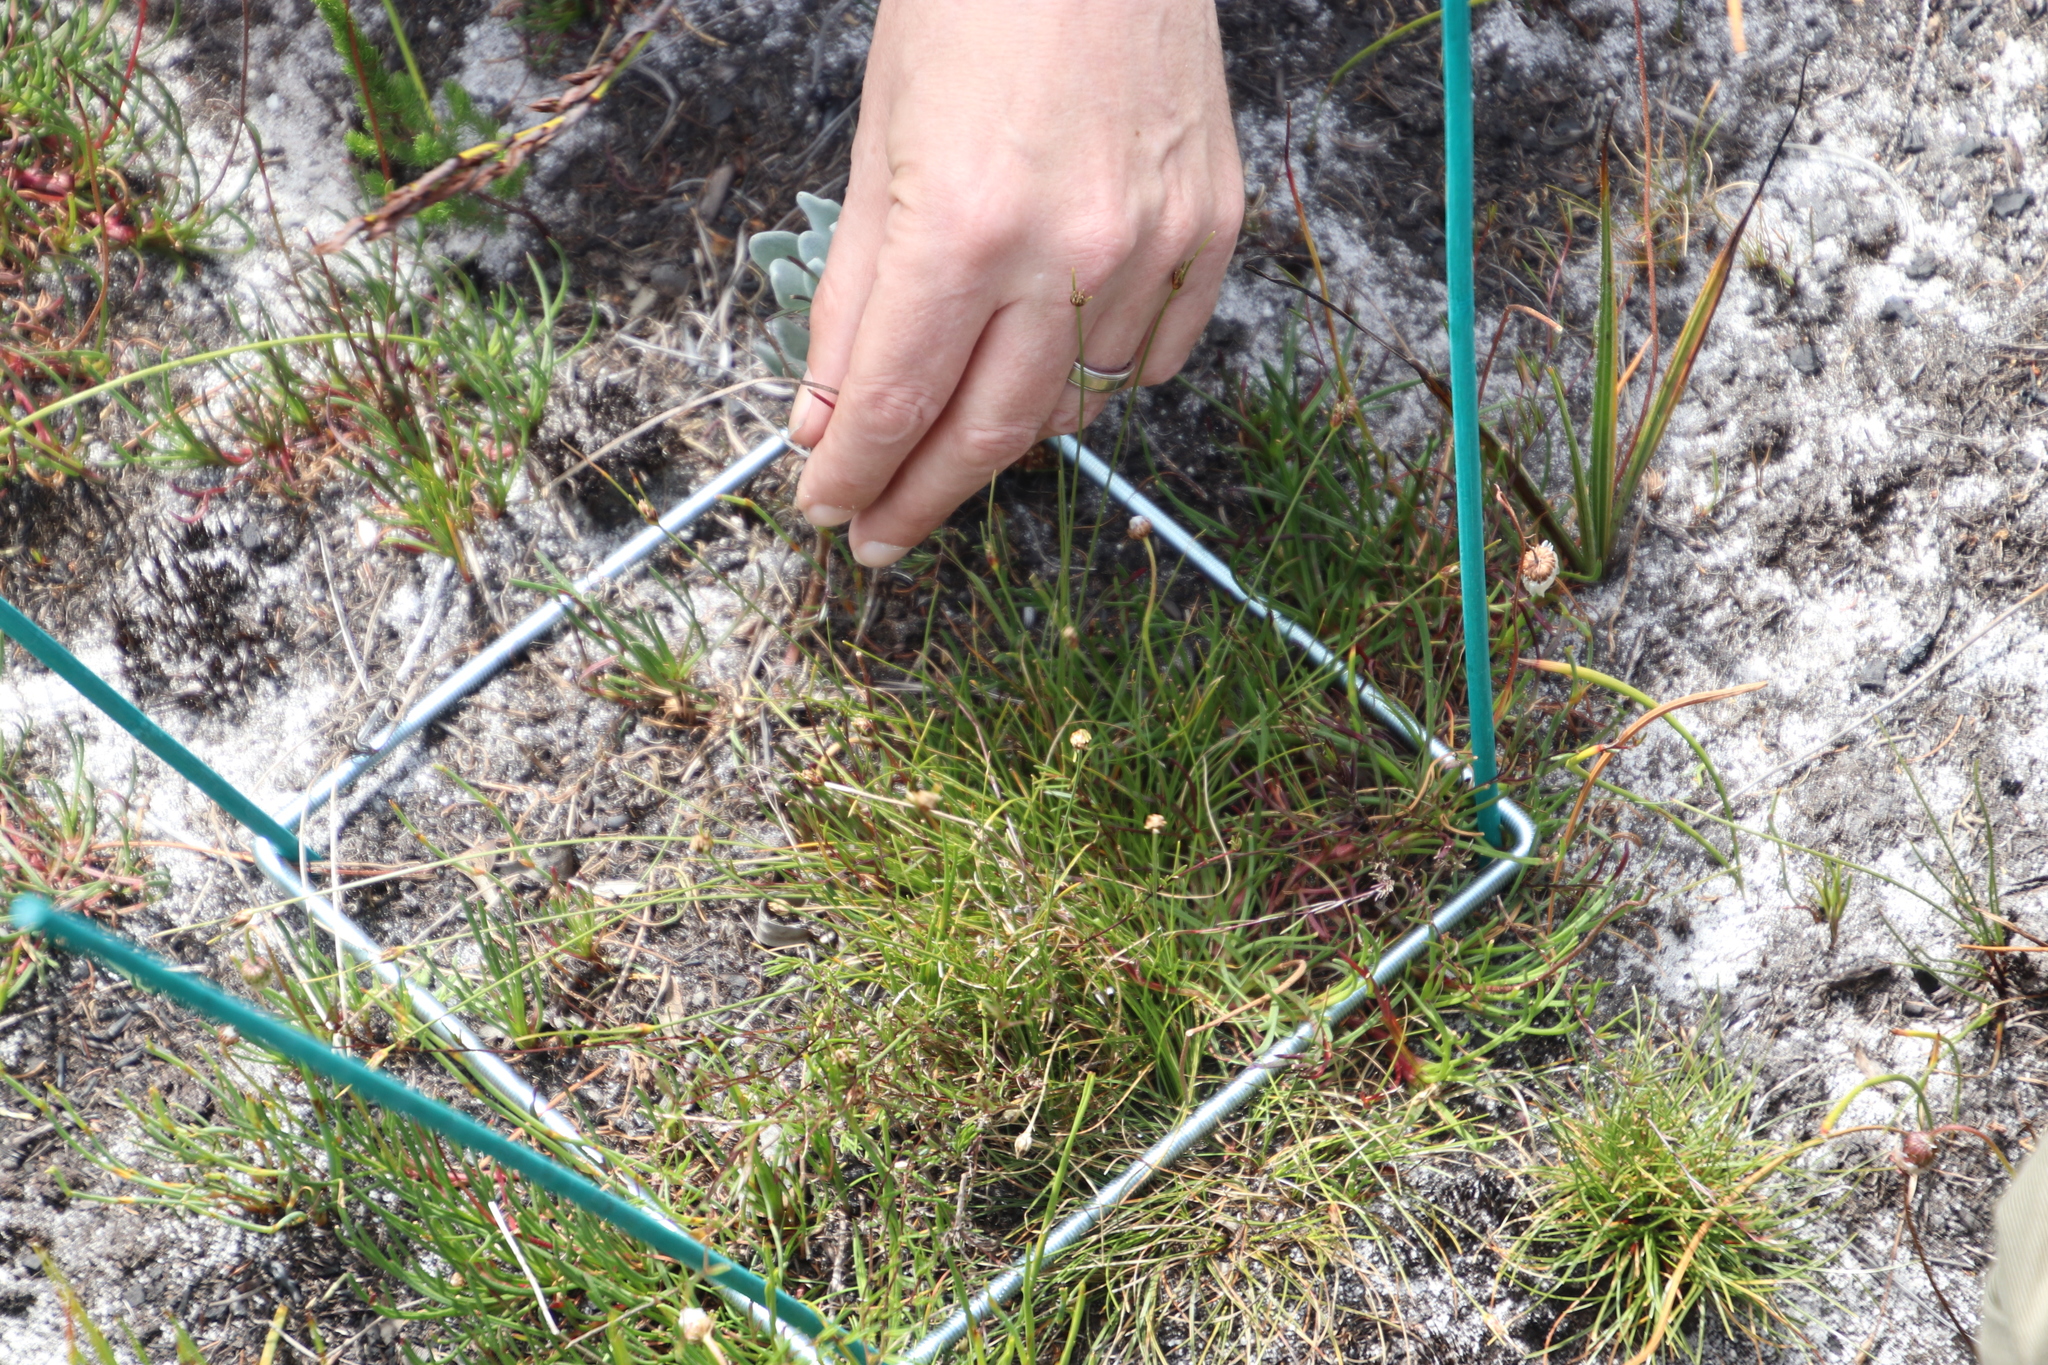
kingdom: Plantae
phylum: Tracheophyta
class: Liliopsida
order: Poales
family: Cyperaceae
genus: Ficinia
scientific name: Ficinia capitella
